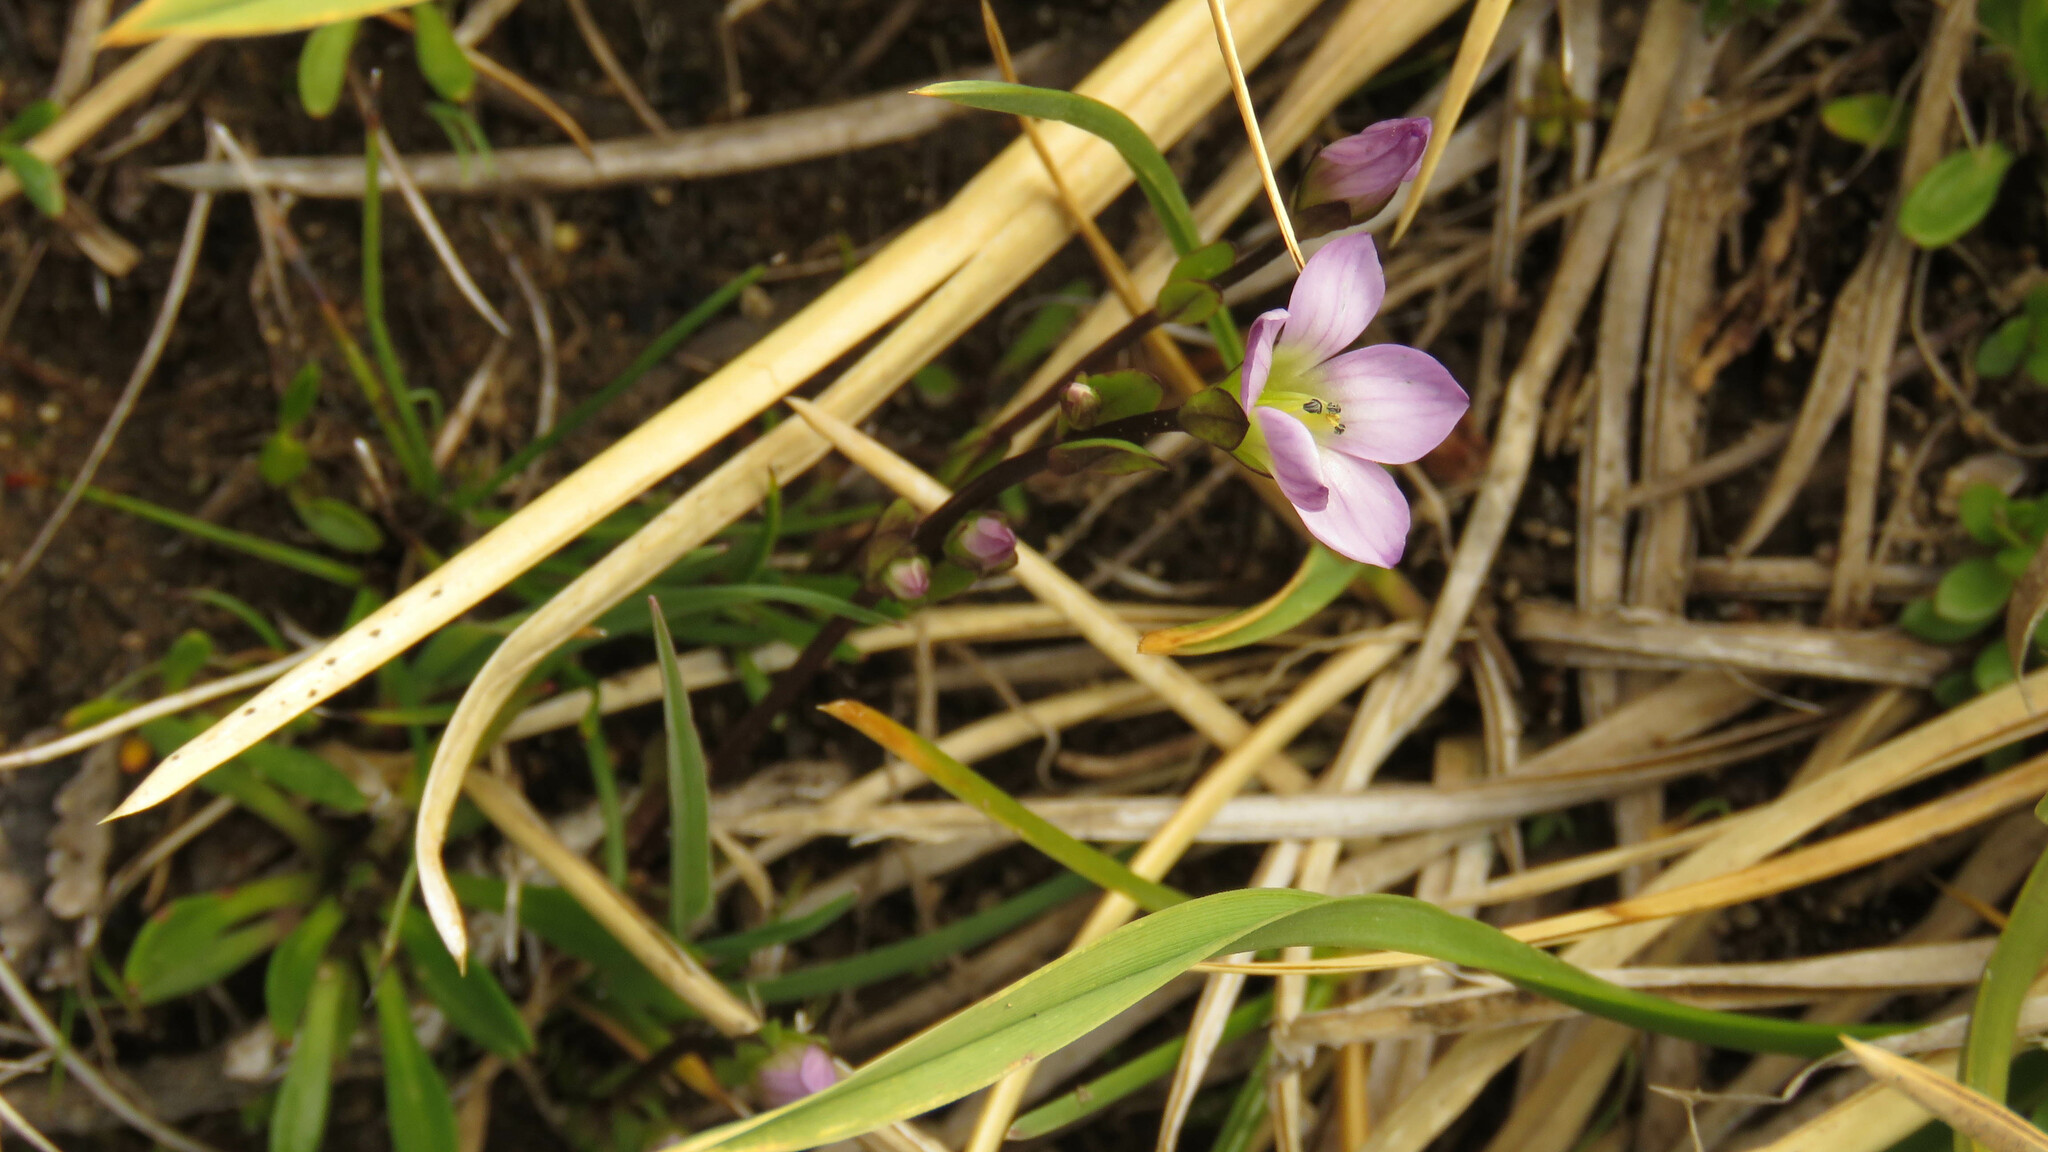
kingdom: Plantae
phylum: Tracheophyta
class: Magnoliopsida
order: Gentianales
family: Gentianaceae
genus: Gentianella
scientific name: Gentianella magellanica
